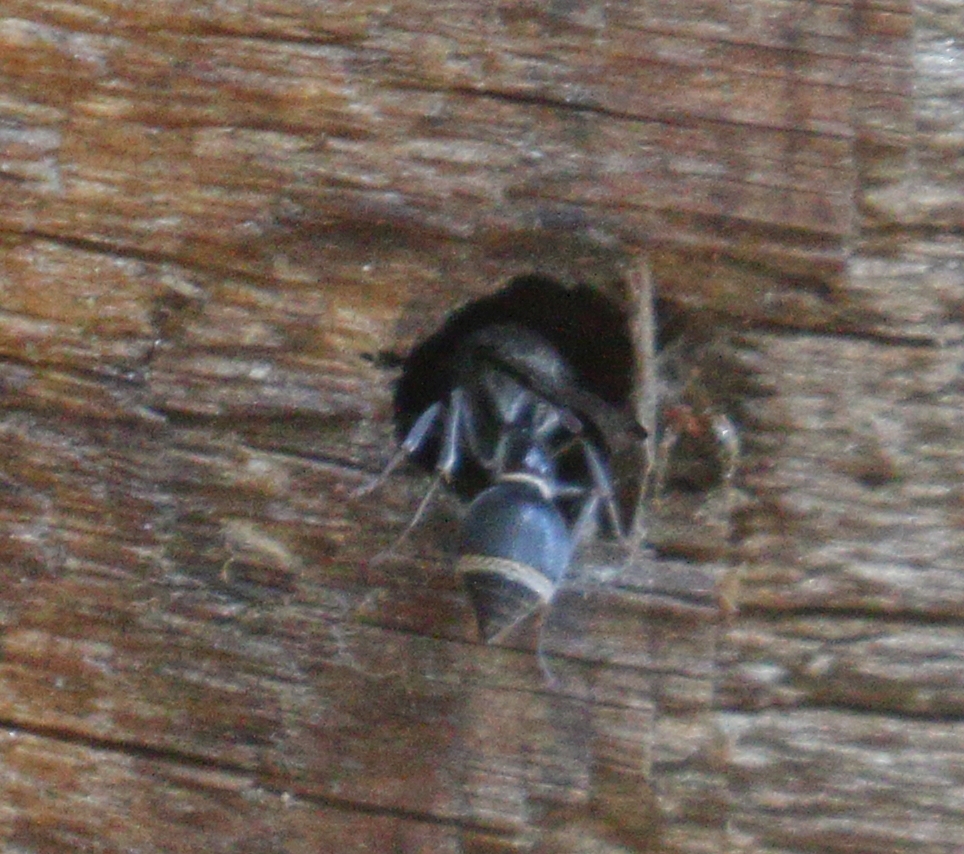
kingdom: Animalia
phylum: Arthropoda
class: Insecta
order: Hymenoptera
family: Eumenidae
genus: Pseudonortonia
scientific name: Pseudonortonia
